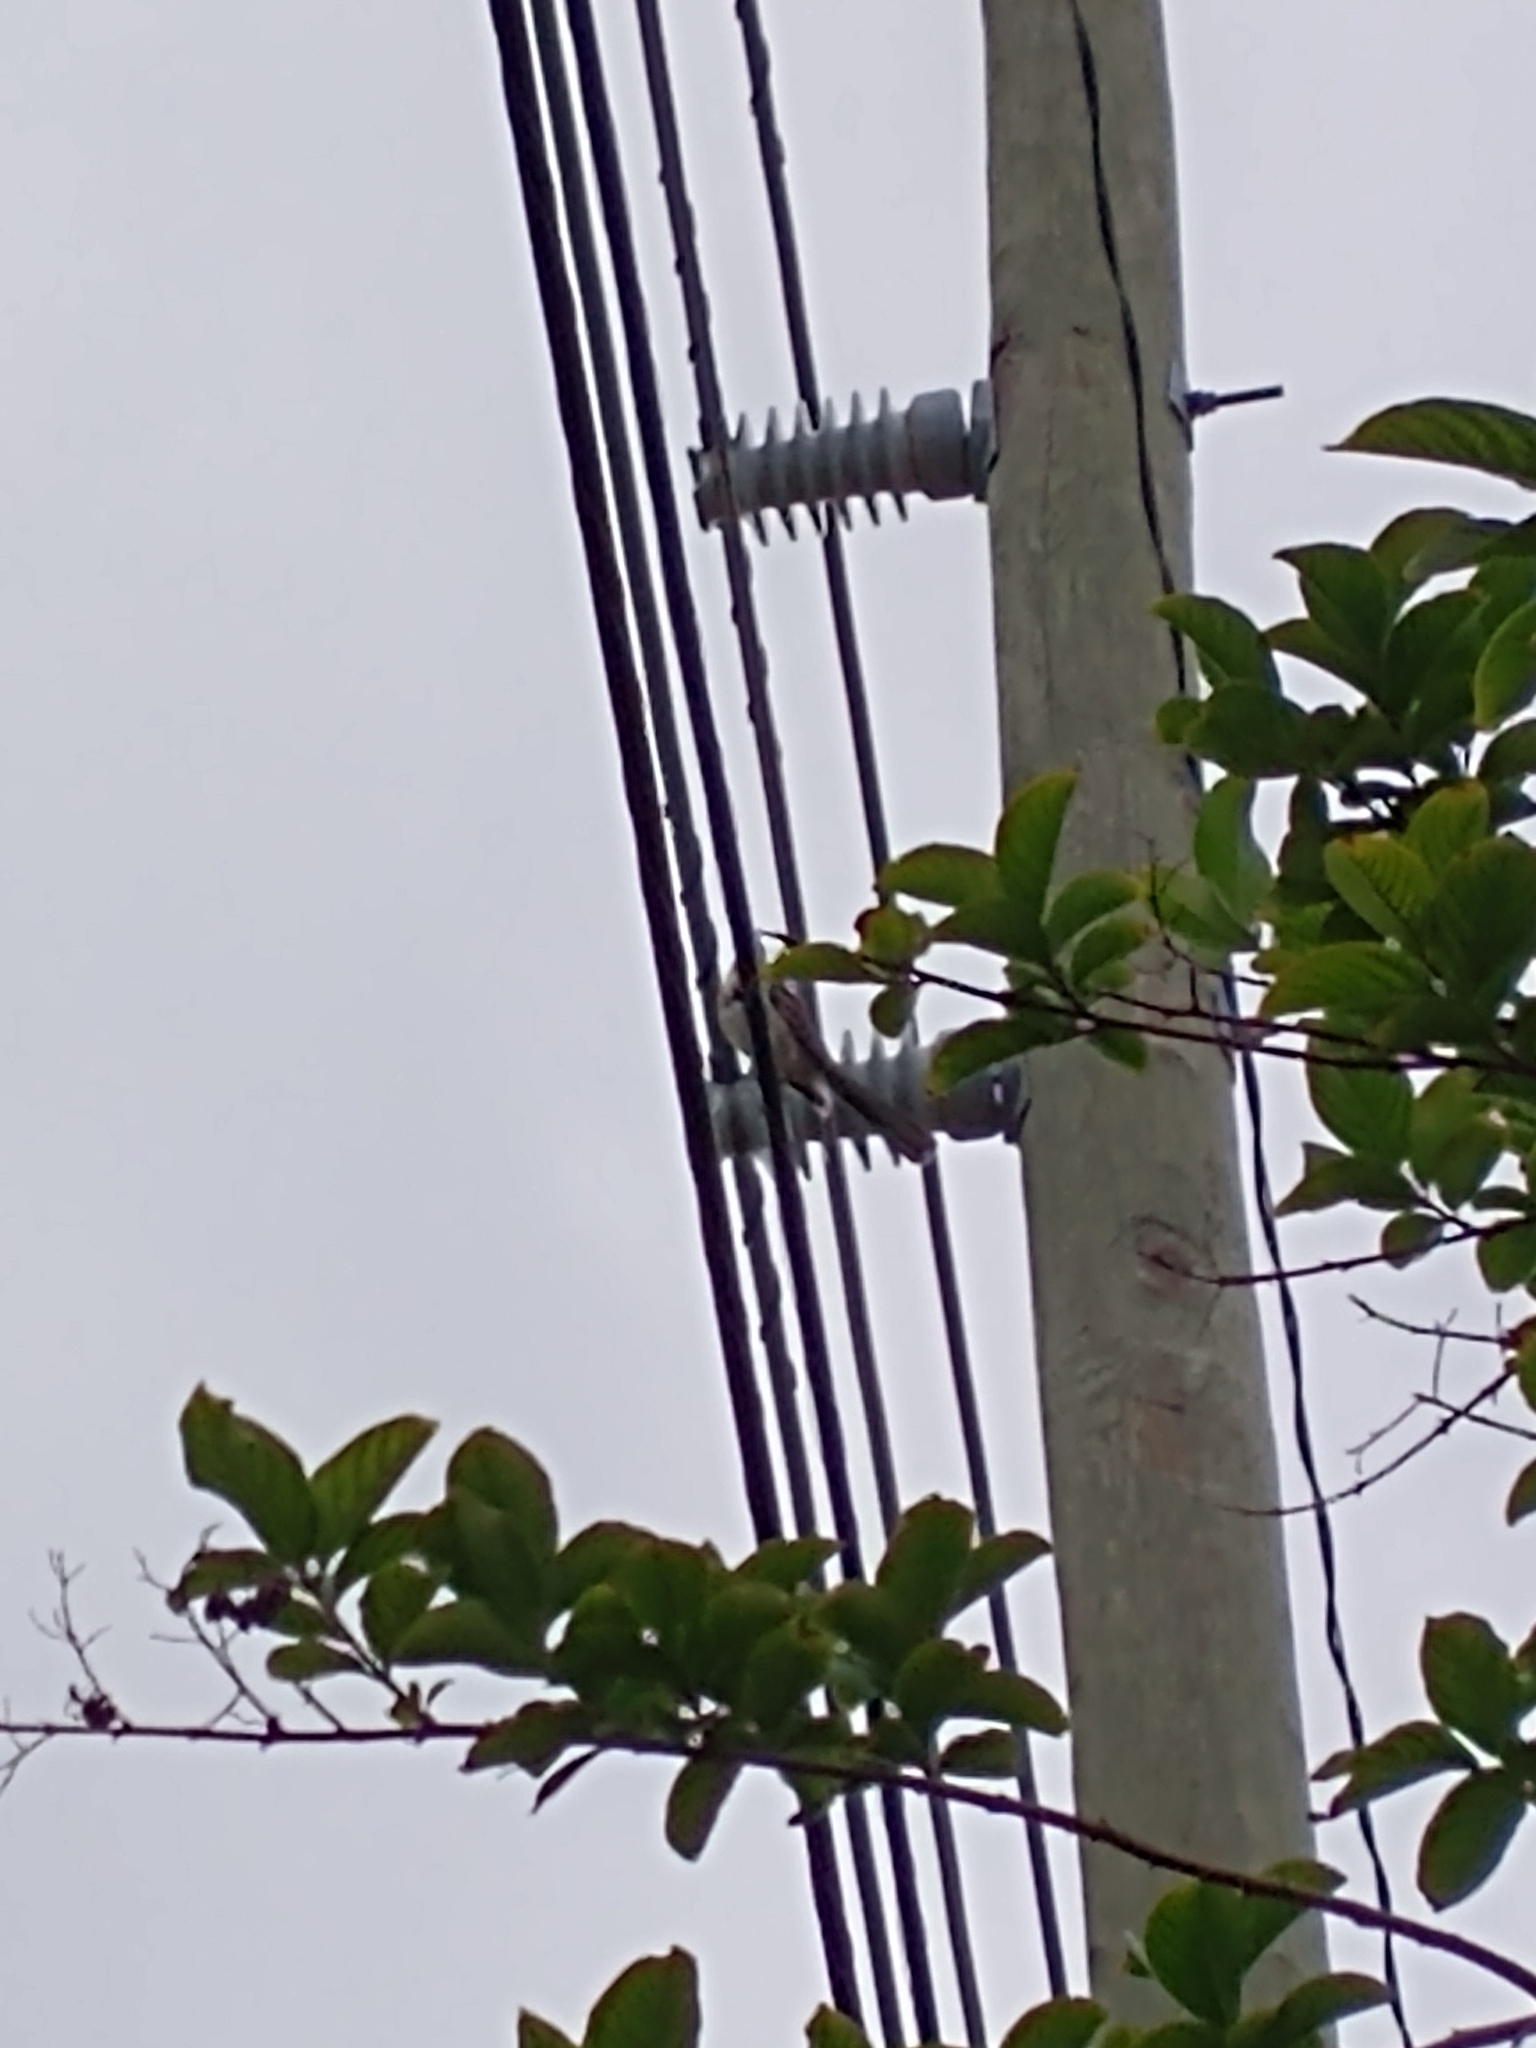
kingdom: Animalia
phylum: Chordata
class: Aves
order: Passeriformes
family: Mimidae
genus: Mimus
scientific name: Mimus polyglottos
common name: Northern mockingbird
